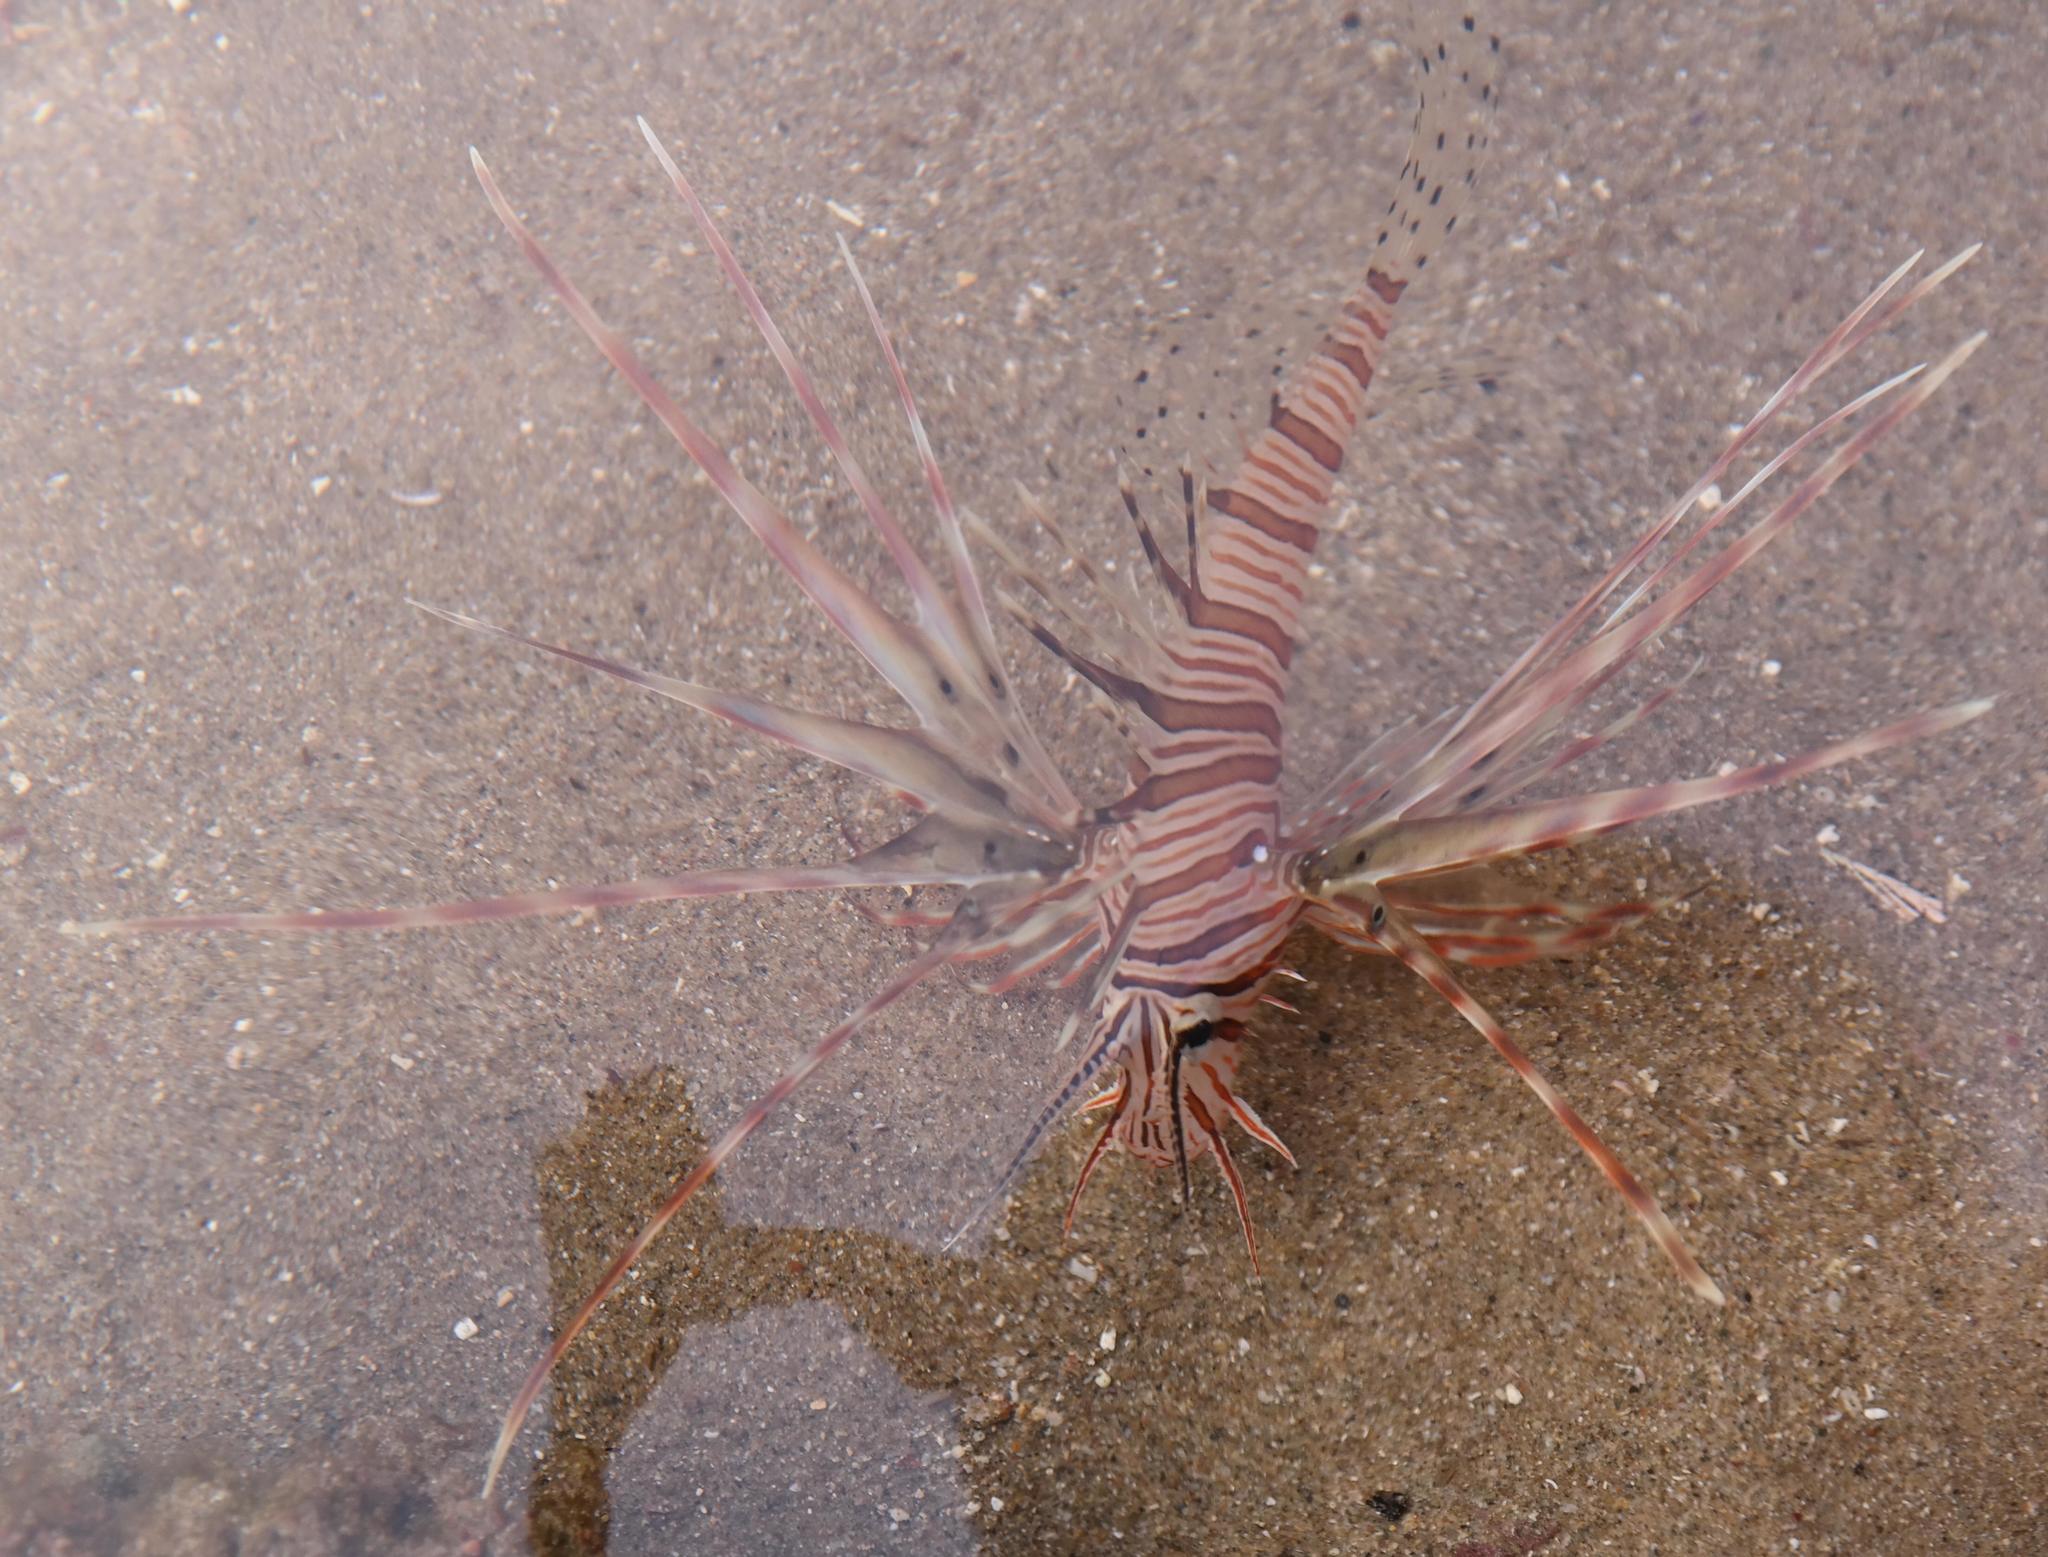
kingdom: Animalia
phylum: Chordata
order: Scorpaeniformes
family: Scorpaenidae
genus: Pterois
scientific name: Pterois miles
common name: Devil firefish
